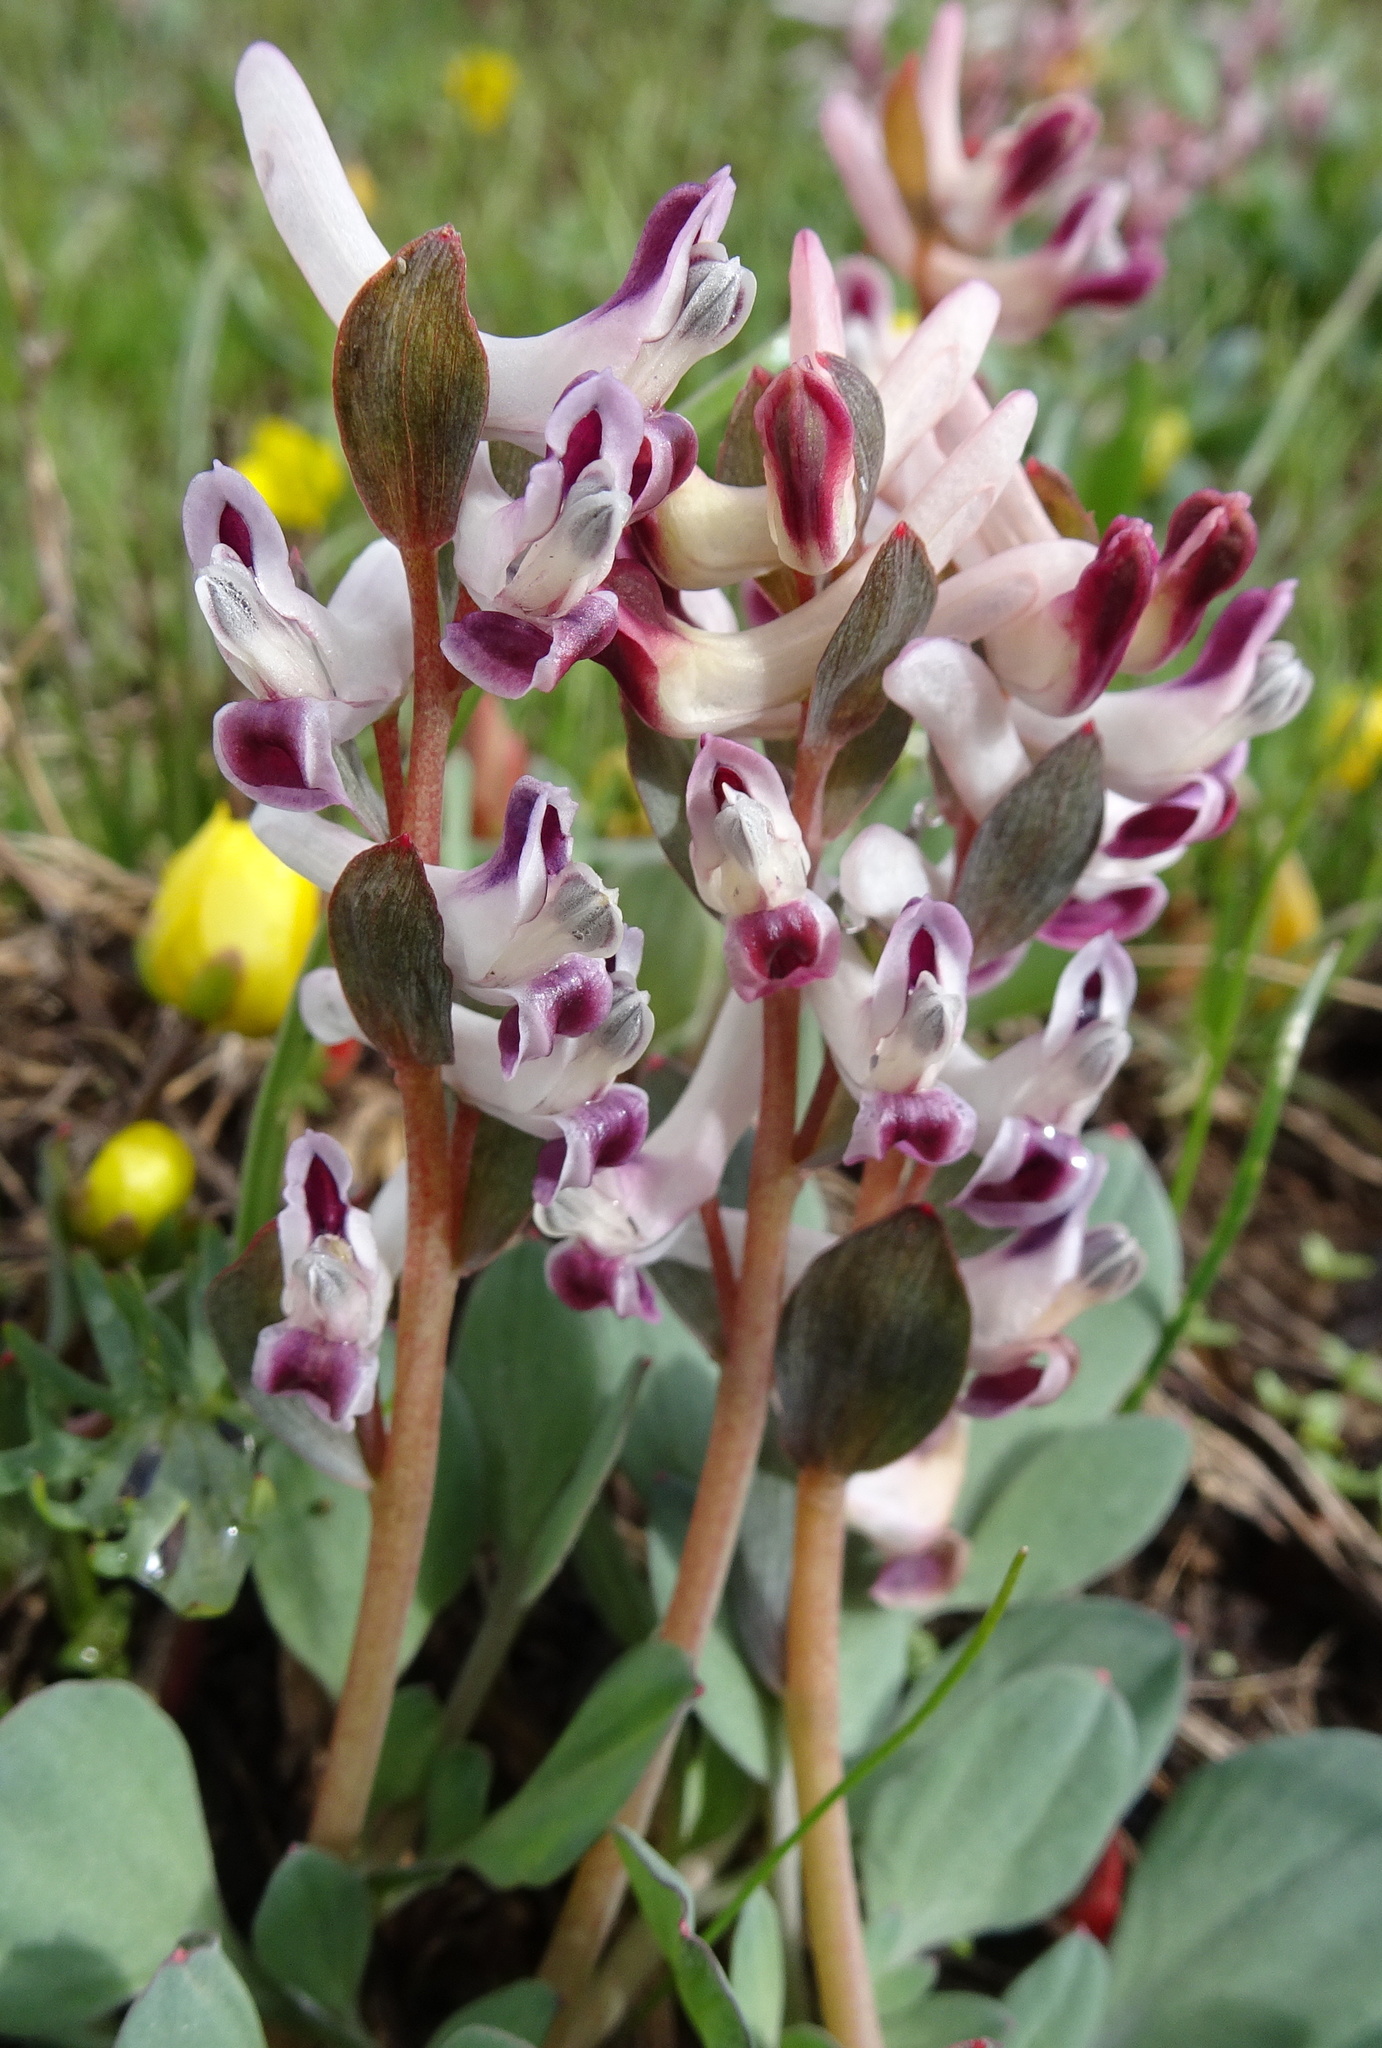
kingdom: Plantae
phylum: Tracheophyta
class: Magnoliopsida
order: Ranunculales
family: Papaveraceae
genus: Corydalis
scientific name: Corydalis ledebouriana
